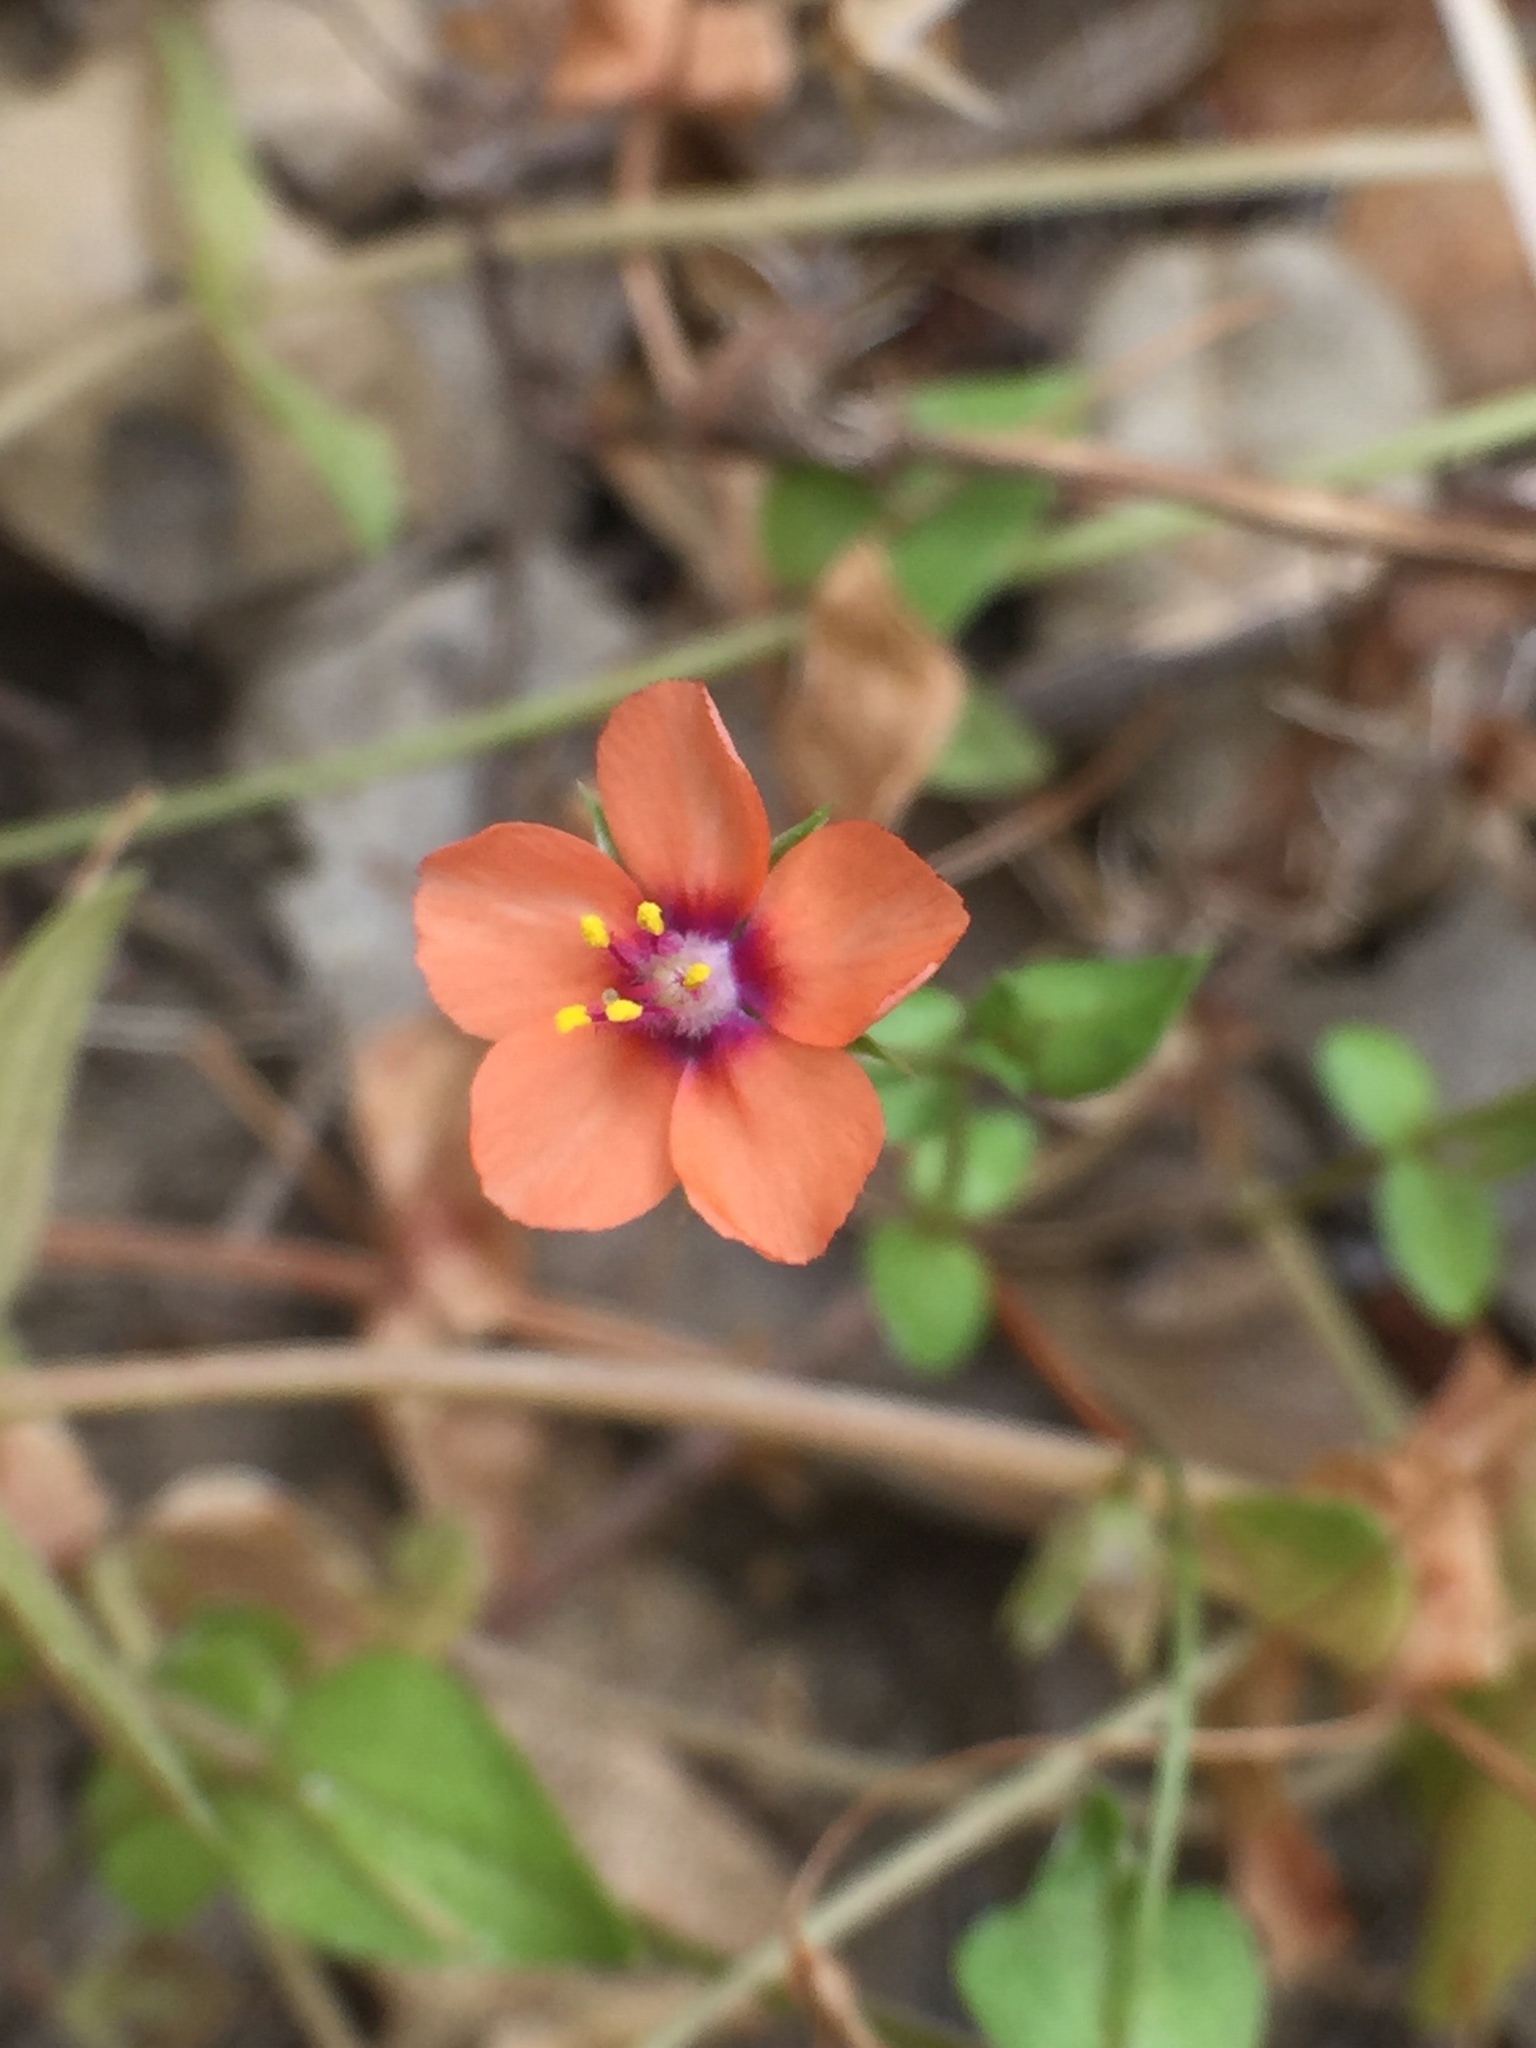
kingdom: Plantae
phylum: Tracheophyta
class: Magnoliopsida
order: Ericales
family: Primulaceae
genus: Lysimachia
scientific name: Lysimachia arvensis
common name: Scarlet pimpernel
